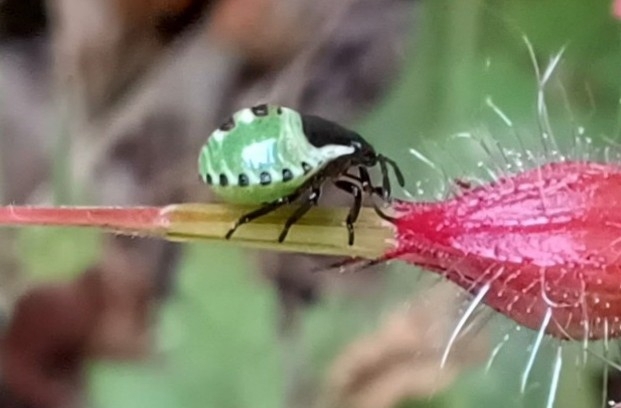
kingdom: Animalia
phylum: Arthropoda
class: Insecta
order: Hemiptera
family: Pentatomidae
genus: Palomena
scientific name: Palomena prasina
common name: Green shieldbug
